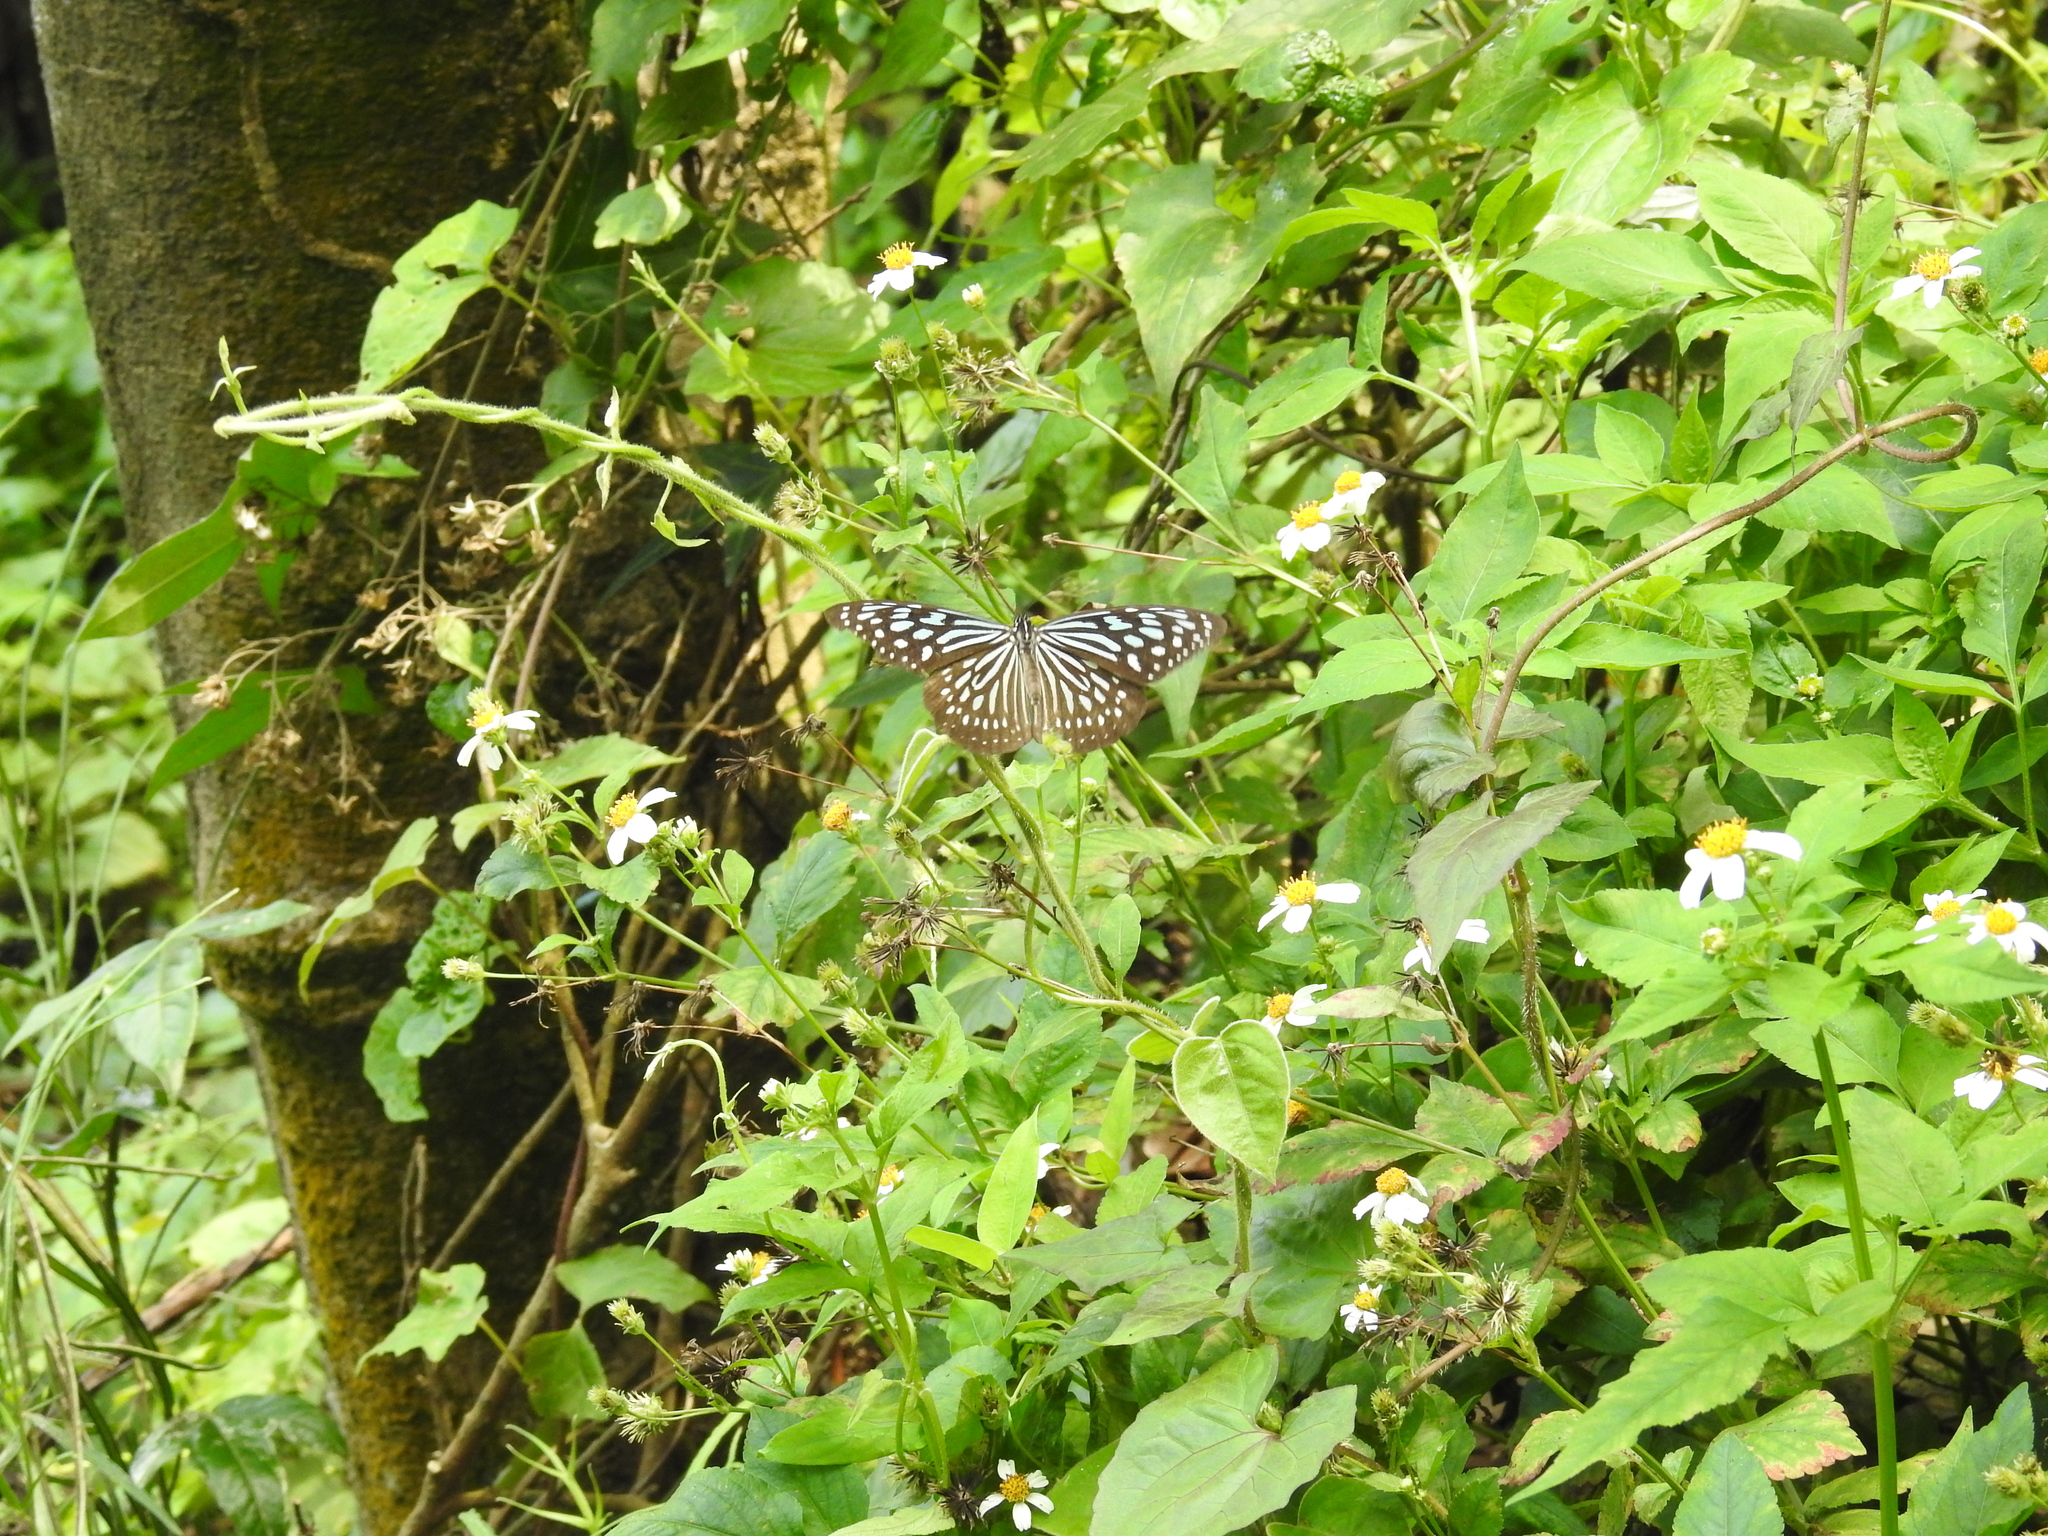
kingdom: Animalia
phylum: Arthropoda
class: Insecta
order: Lepidoptera
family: Nymphalidae
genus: Ideopsis
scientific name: Ideopsis similis
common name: Ceylon blue glassy tiger
